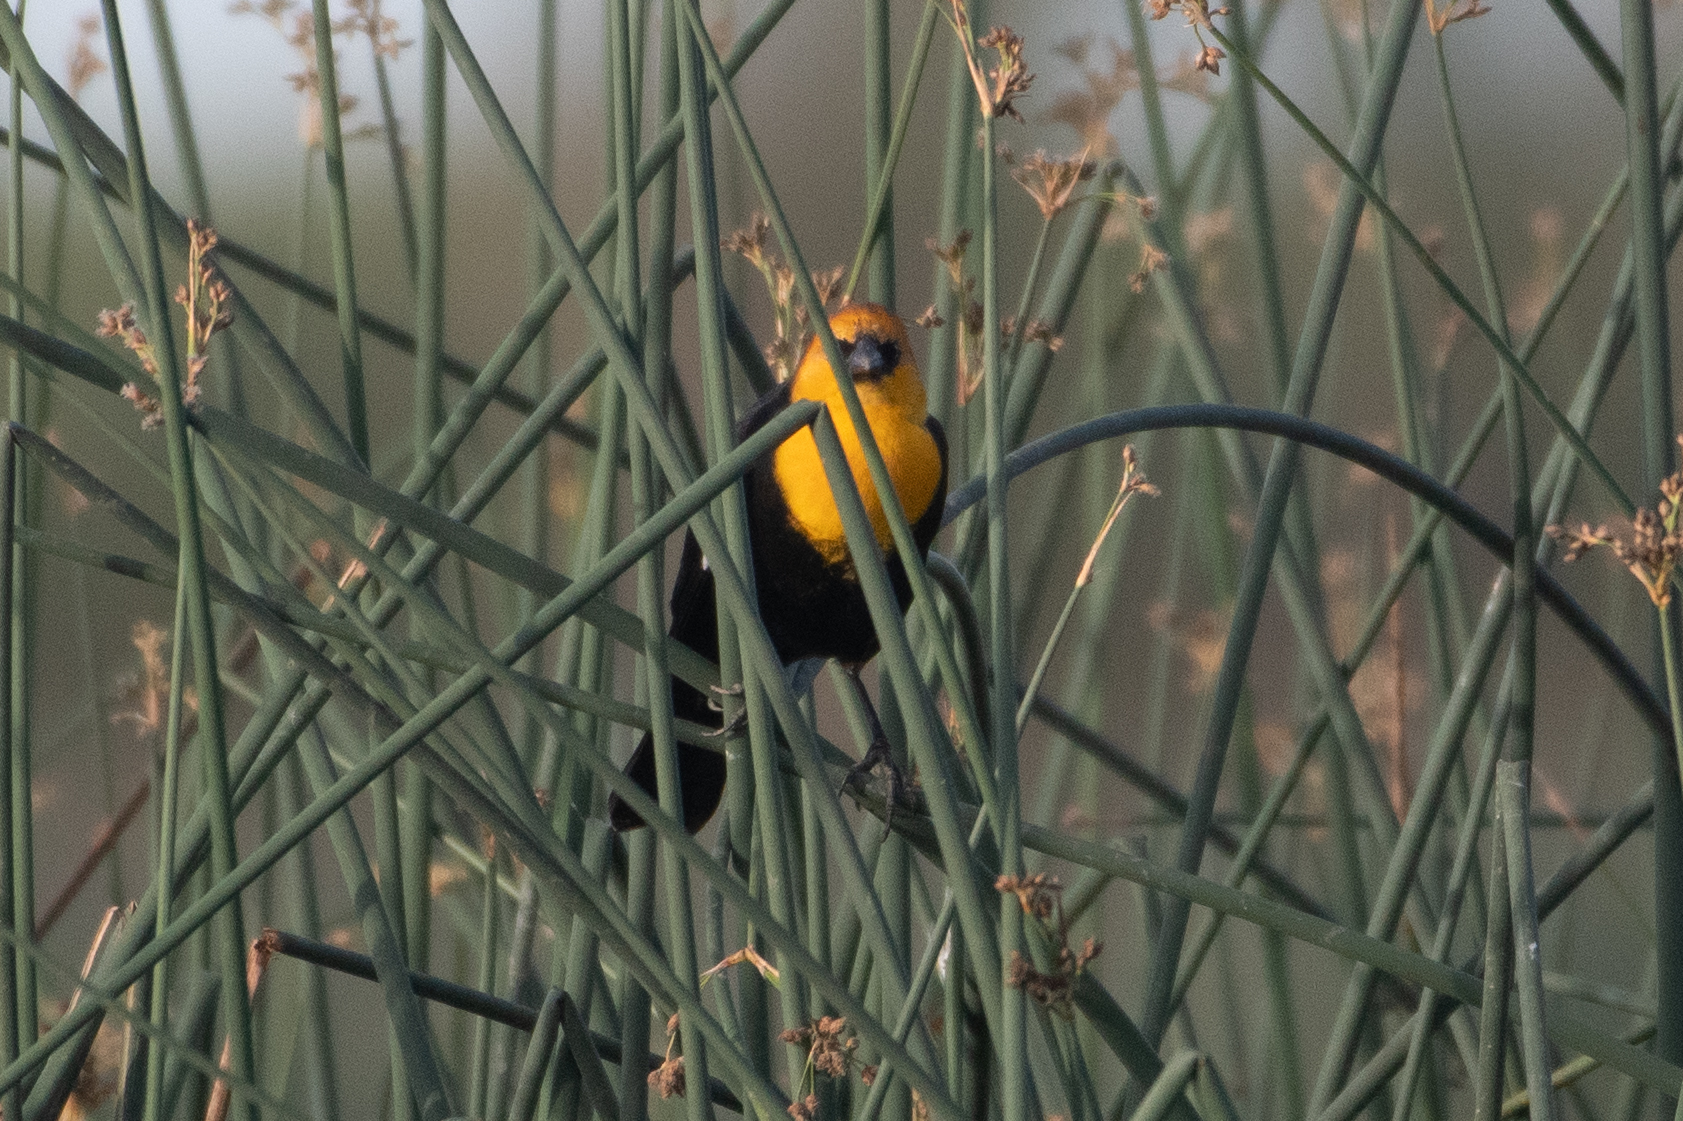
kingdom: Animalia
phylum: Chordata
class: Aves
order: Passeriformes
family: Icteridae
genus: Xanthocephalus
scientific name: Xanthocephalus xanthocephalus
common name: Yellow-headed blackbird
